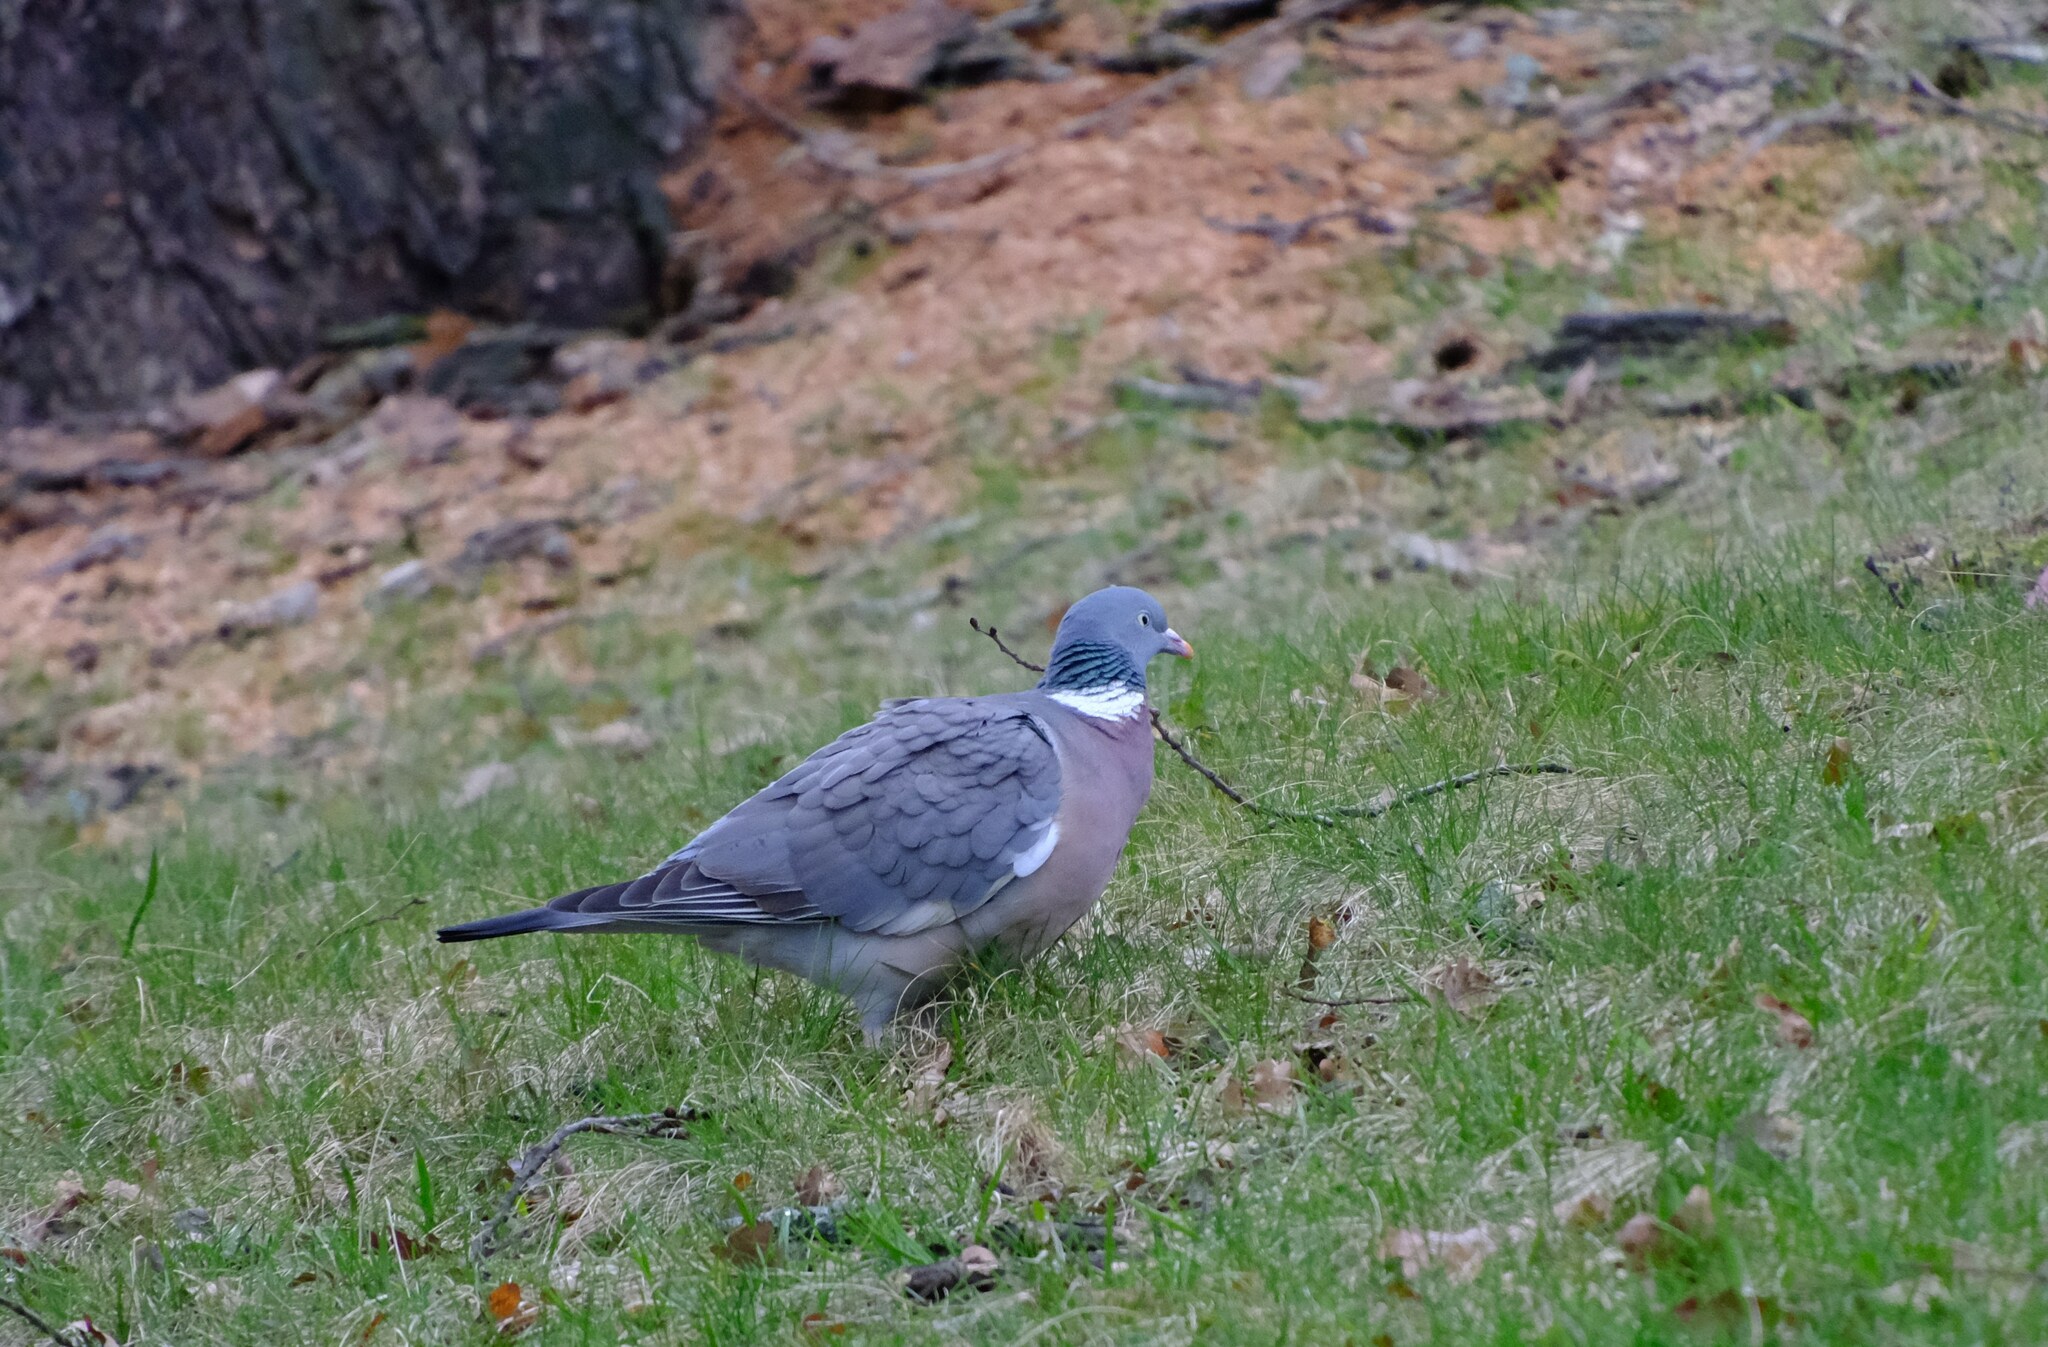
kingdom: Animalia
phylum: Chordata
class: Aves
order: Columbiformes
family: Columbidae
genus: Columba
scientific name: Columba palumbus
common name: Common wood pigeon
